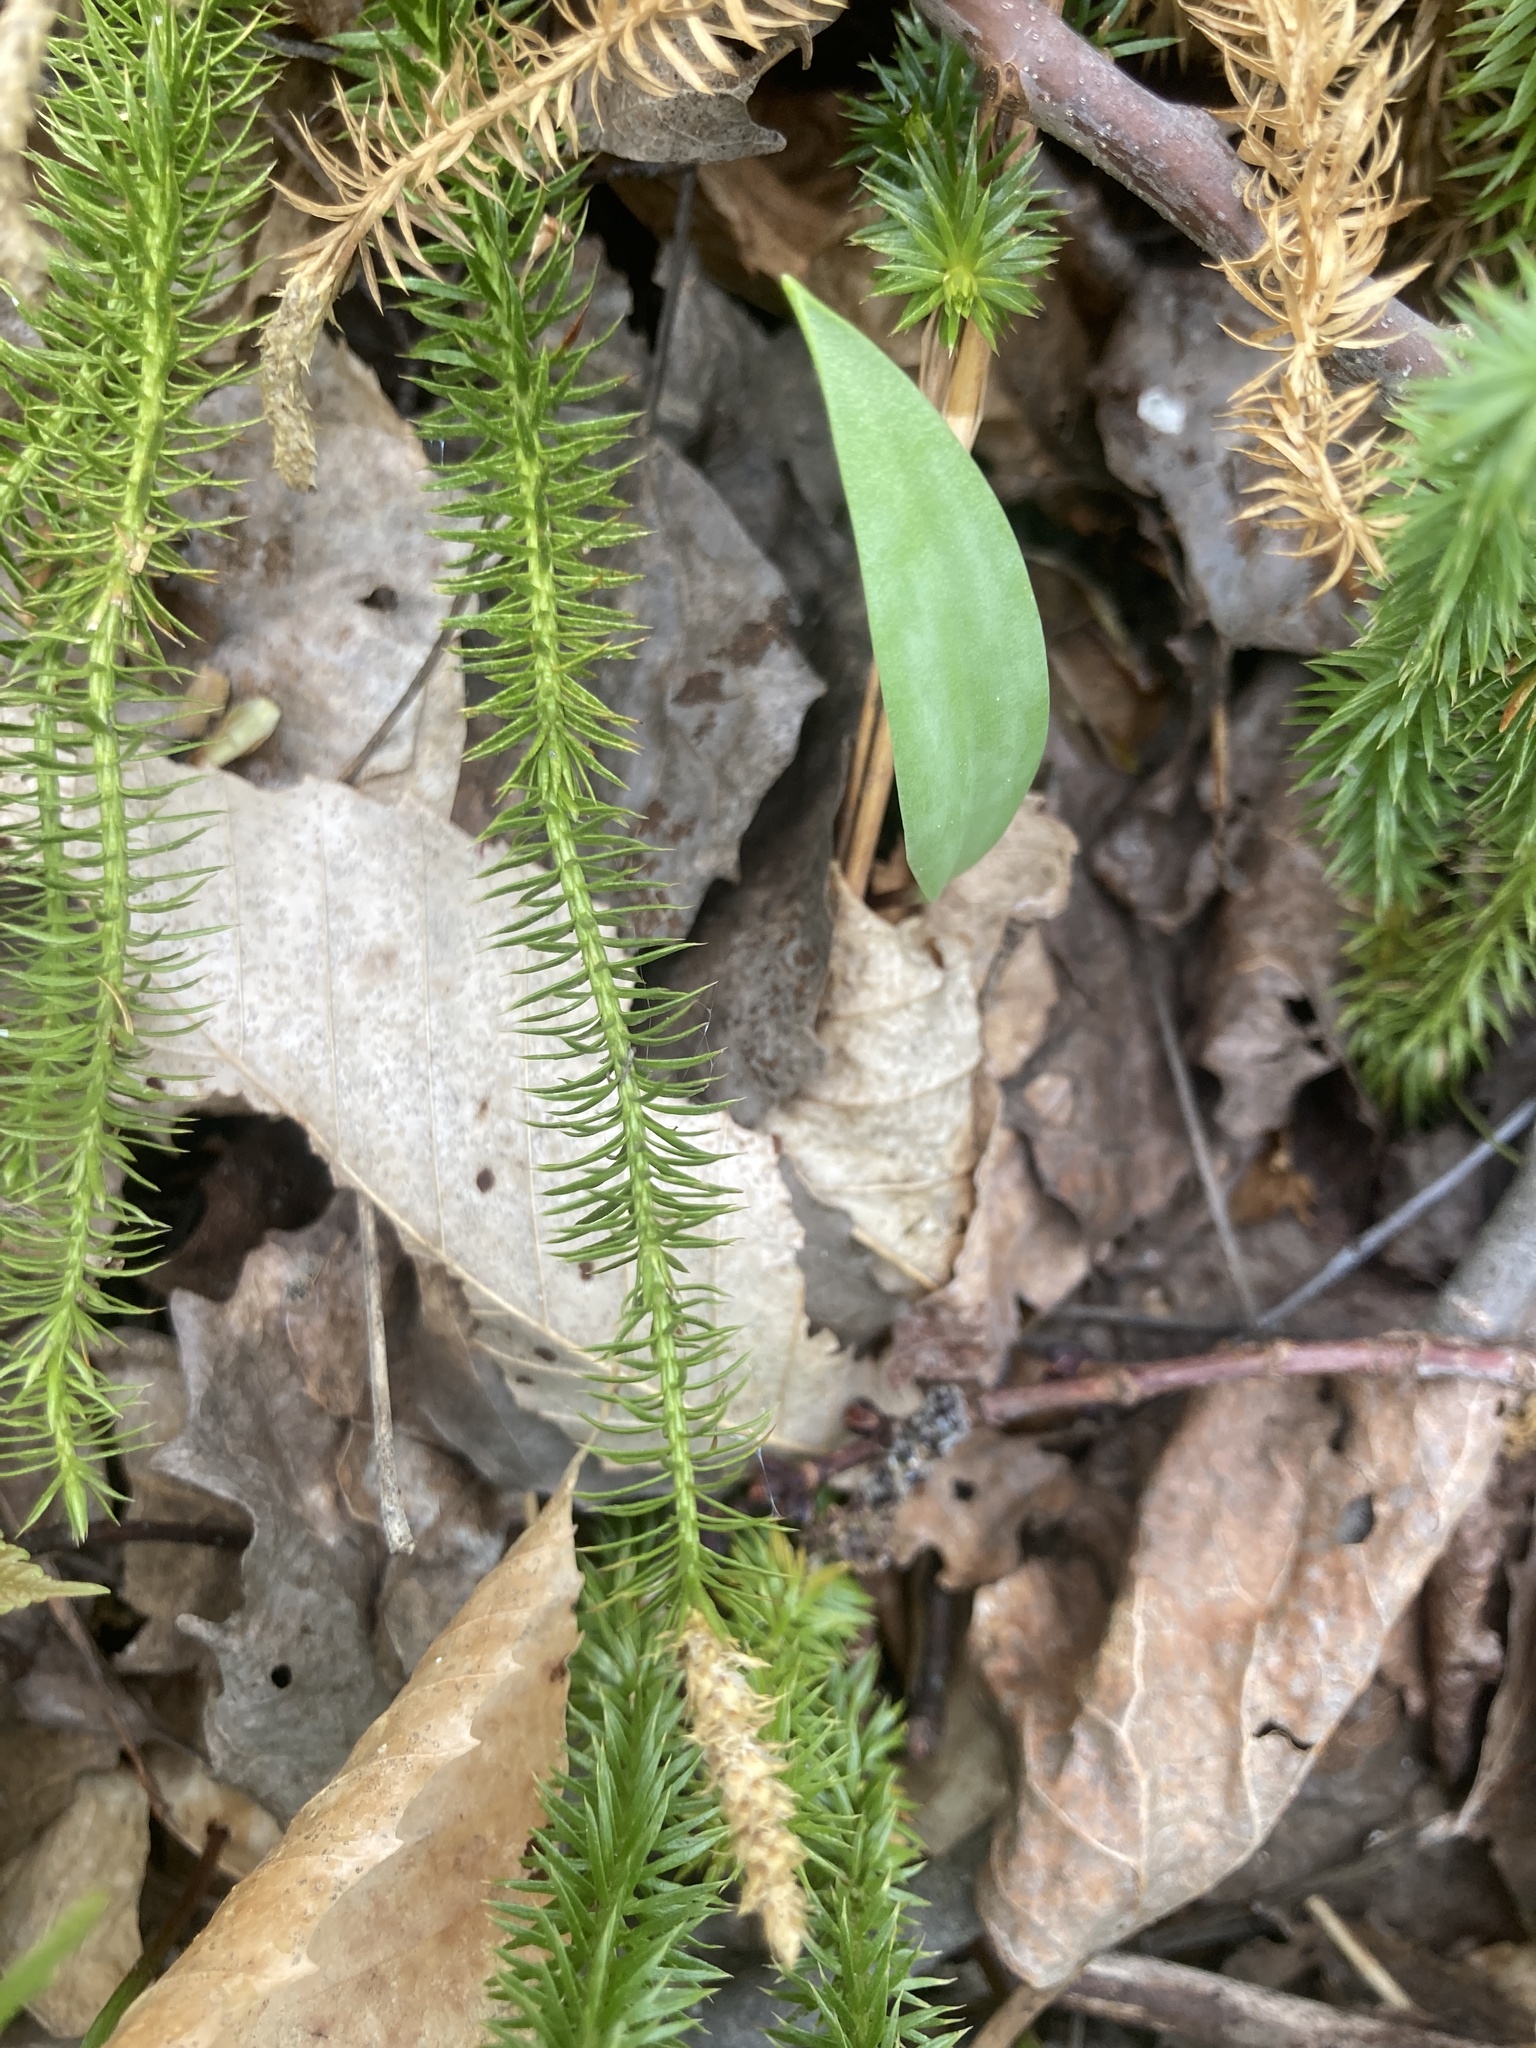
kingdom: Plantae
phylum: Tracheophyta
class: Lycopodiopsida
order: Lycopodiales
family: Lycopodiaceae
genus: Spinulum
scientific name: Spinulum annotinum
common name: Interrupted club-moss
